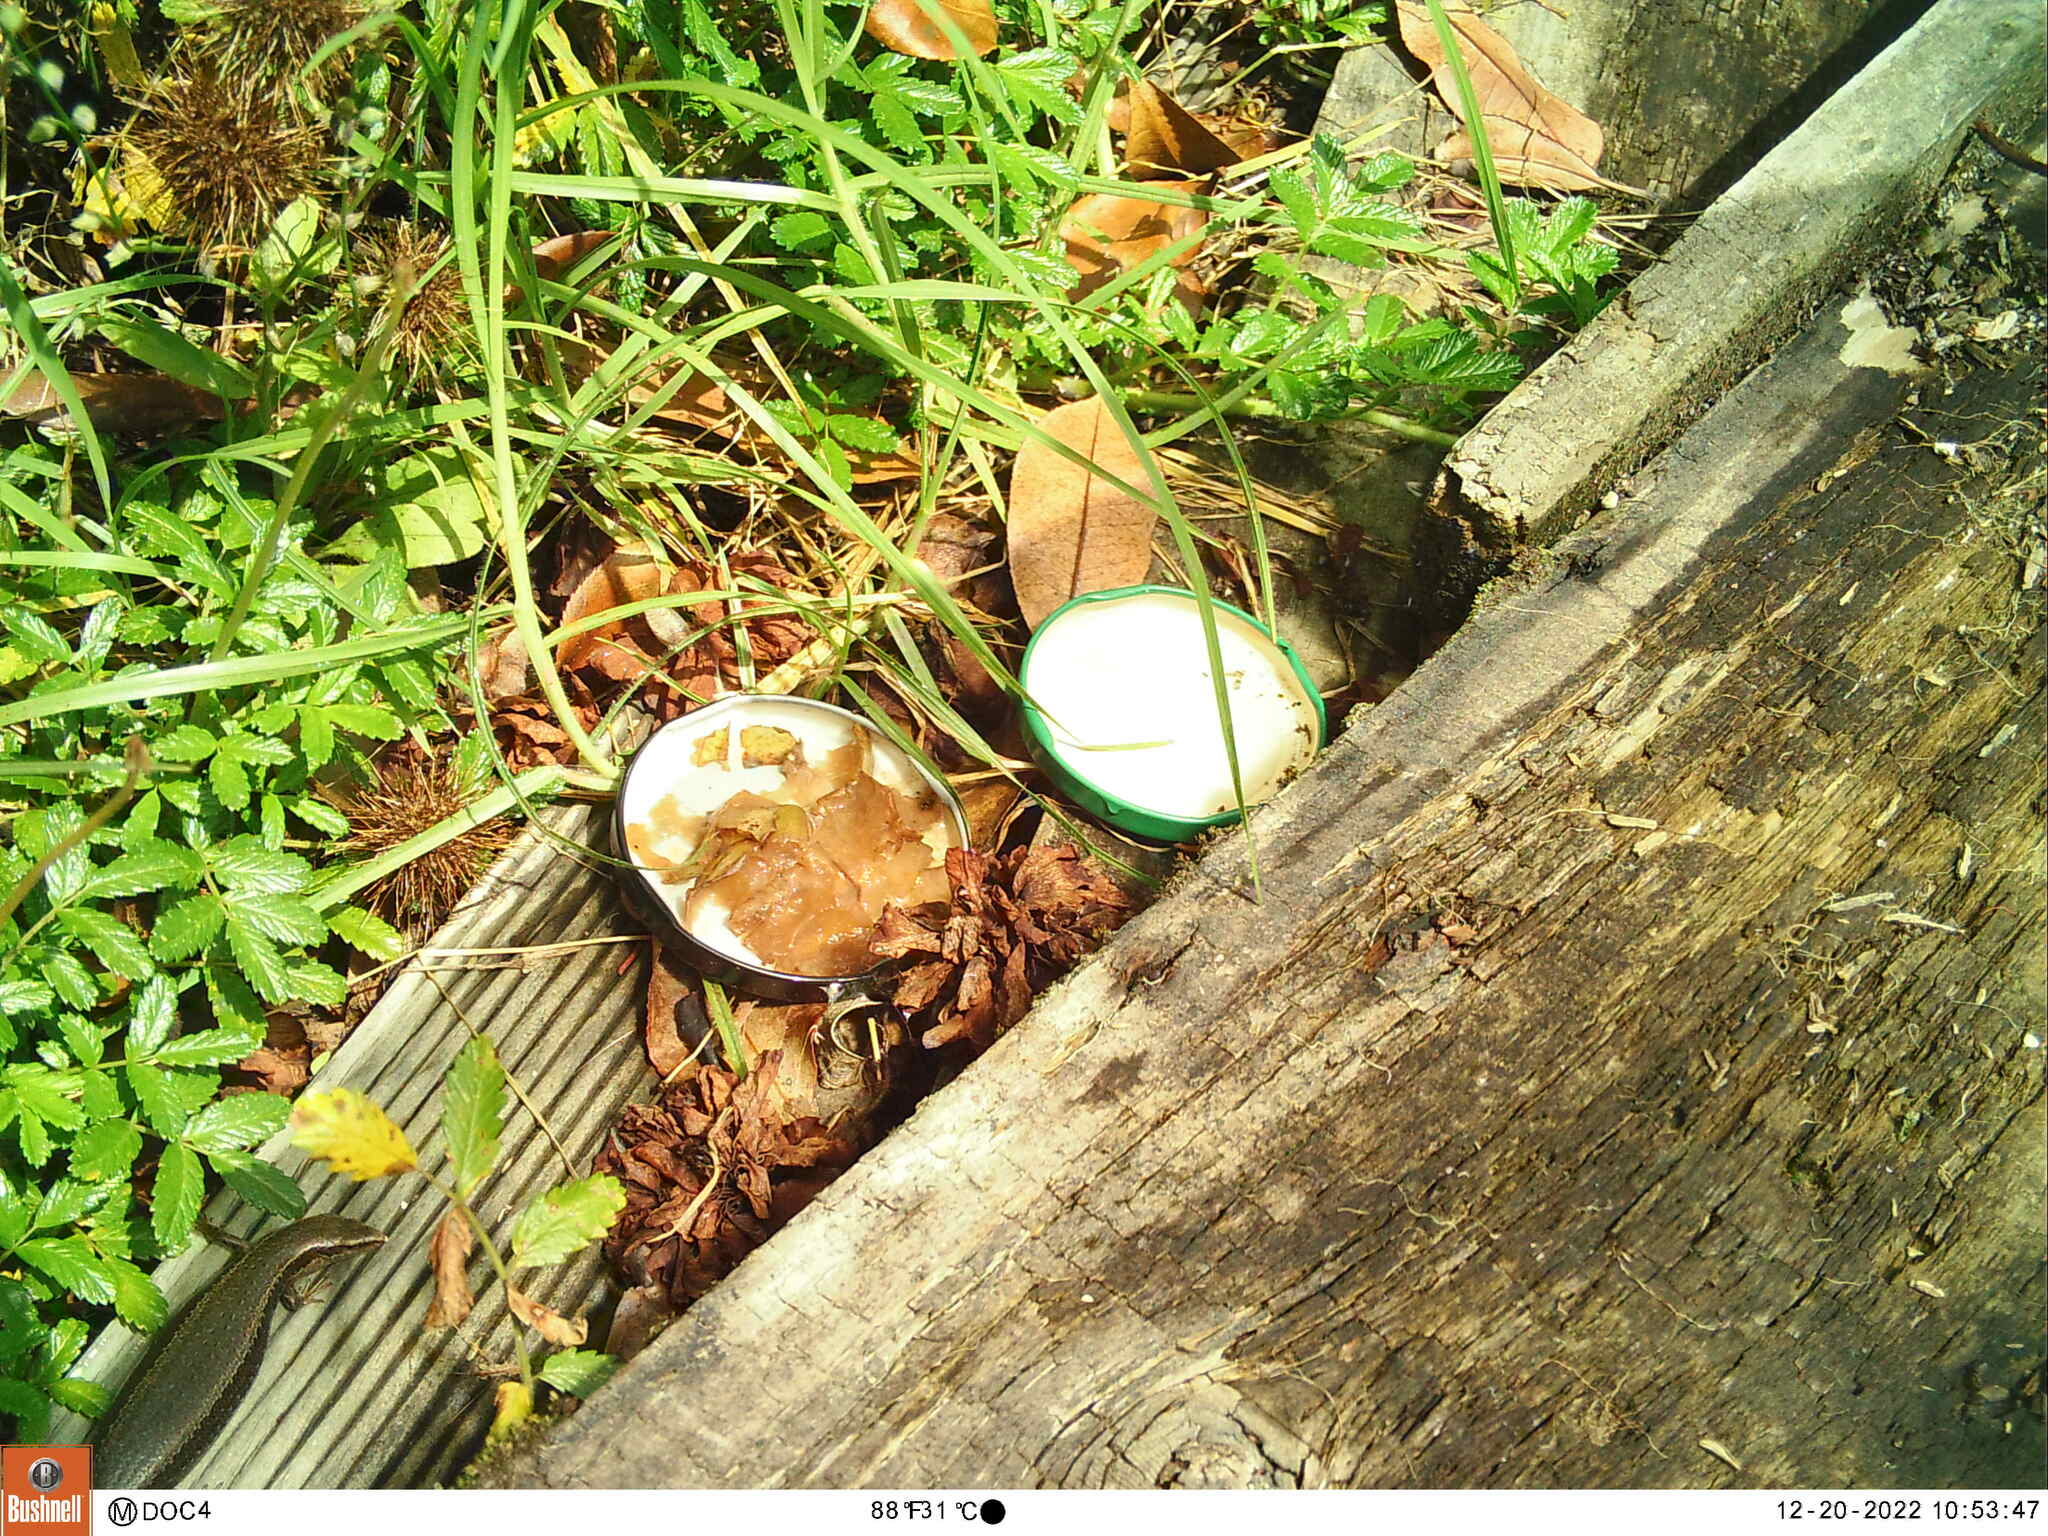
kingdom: Animalia
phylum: Chordata
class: Squamata
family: Scincidae
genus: Oligosoma
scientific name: Oligosoma polychroma
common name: Common new zealand skink
